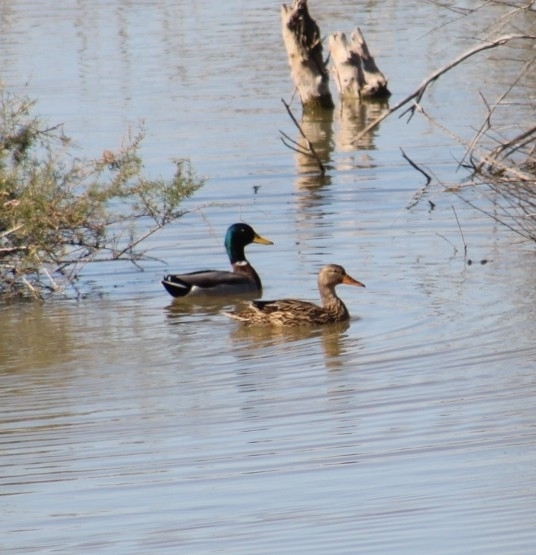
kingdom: Animalia
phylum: Chordata
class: Aves
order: Anseriformes
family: Anatidae
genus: Anas
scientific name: Anas platyrhynchos
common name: Mallard
